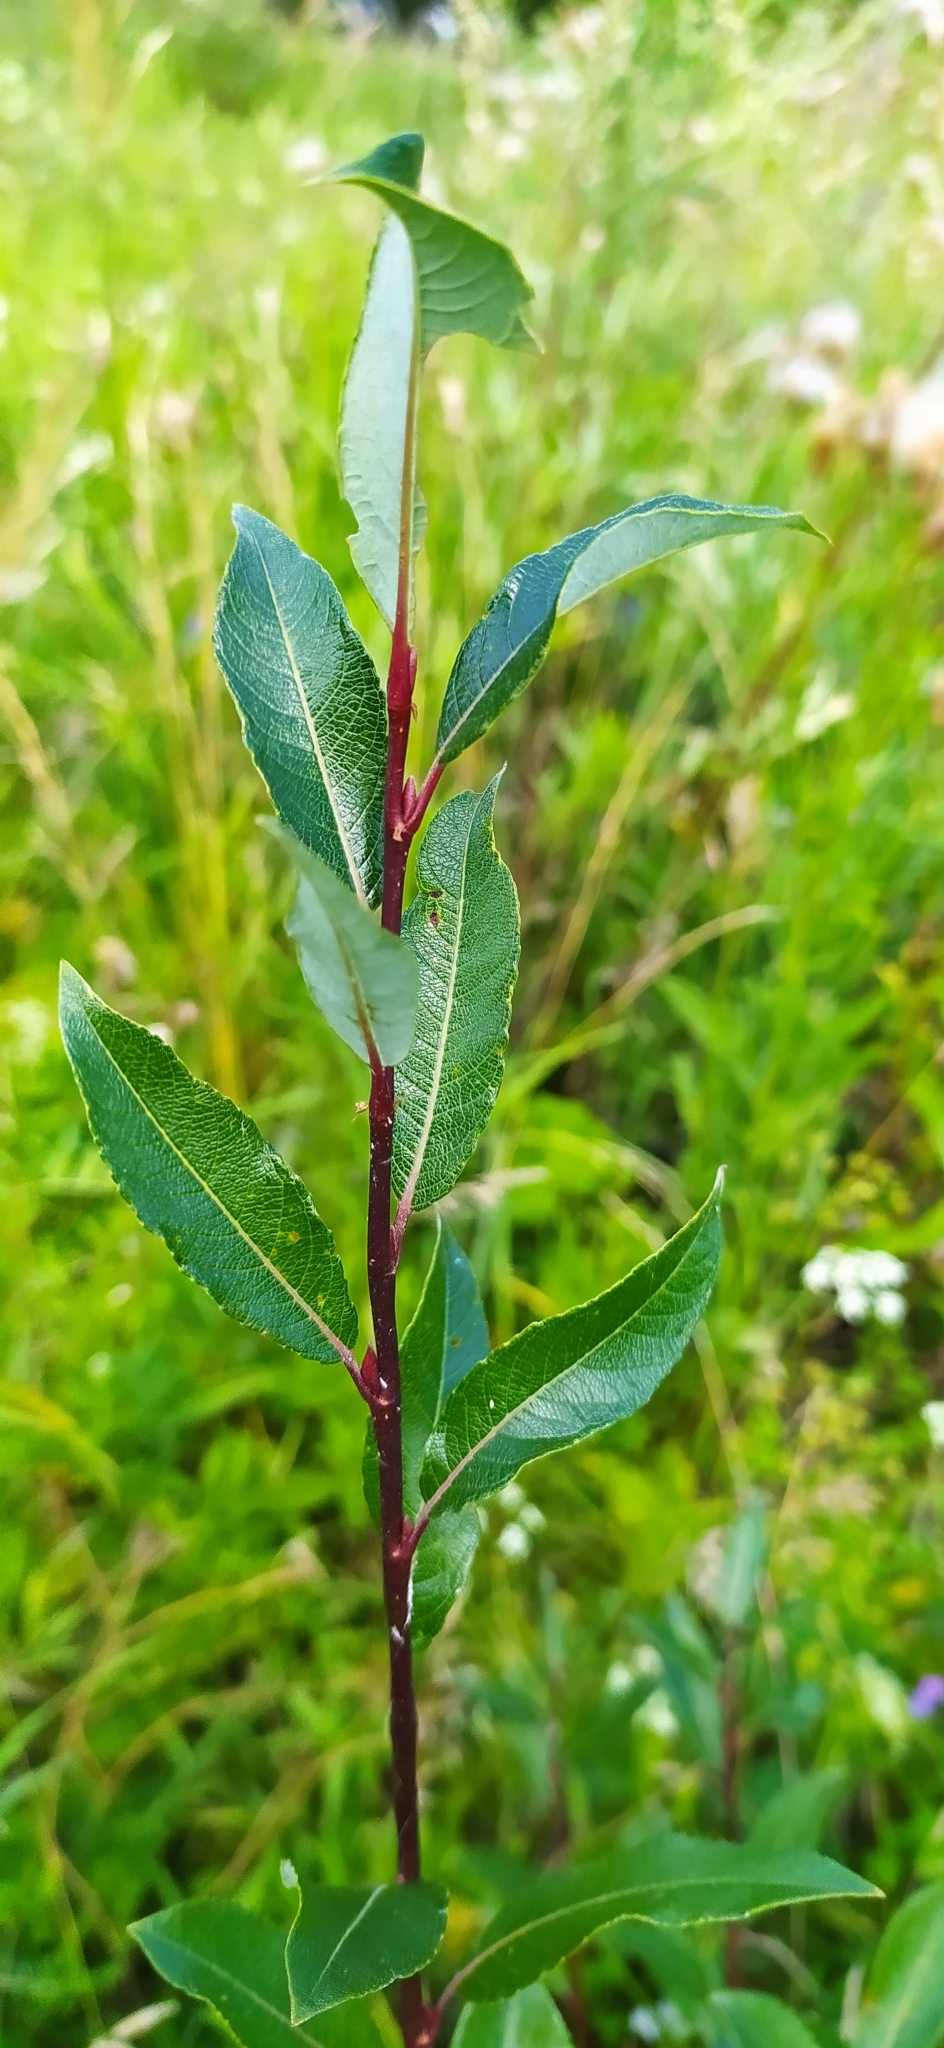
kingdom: Plantae
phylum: Tracheophyta
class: Magnoliopsida
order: Malpighiales
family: Salicaceae
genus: Salix
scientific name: Salix phylicifolia
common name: Tea-leaved willow
